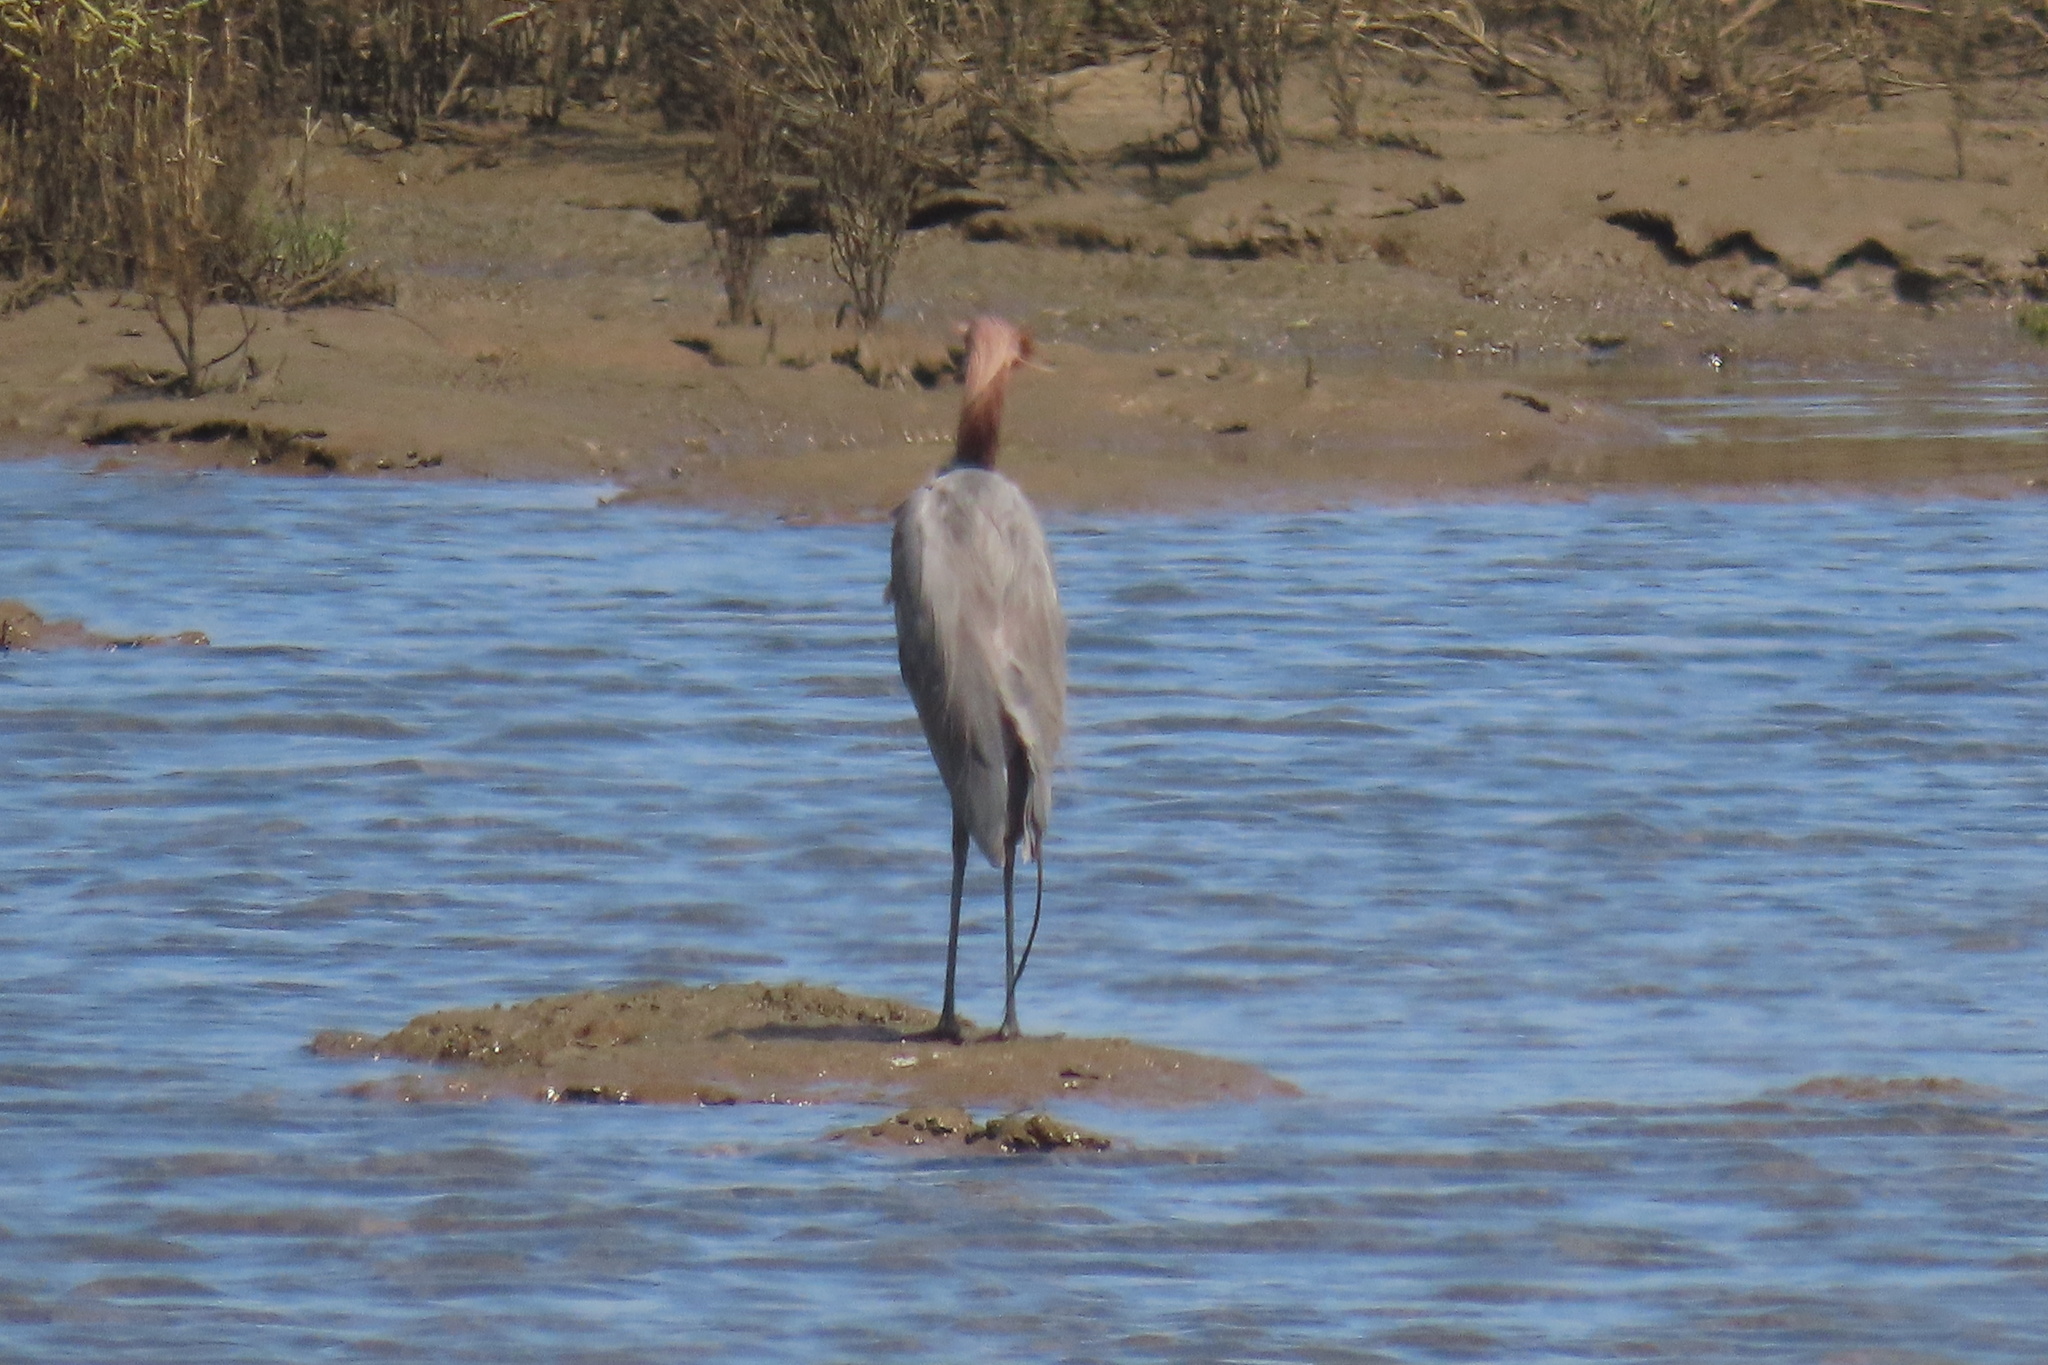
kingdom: Animalia
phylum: Chordata
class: Aves
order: Pelecaniformes
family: Ardeidae
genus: Egretta
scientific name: Egretta rufescens
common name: Reddish egret
